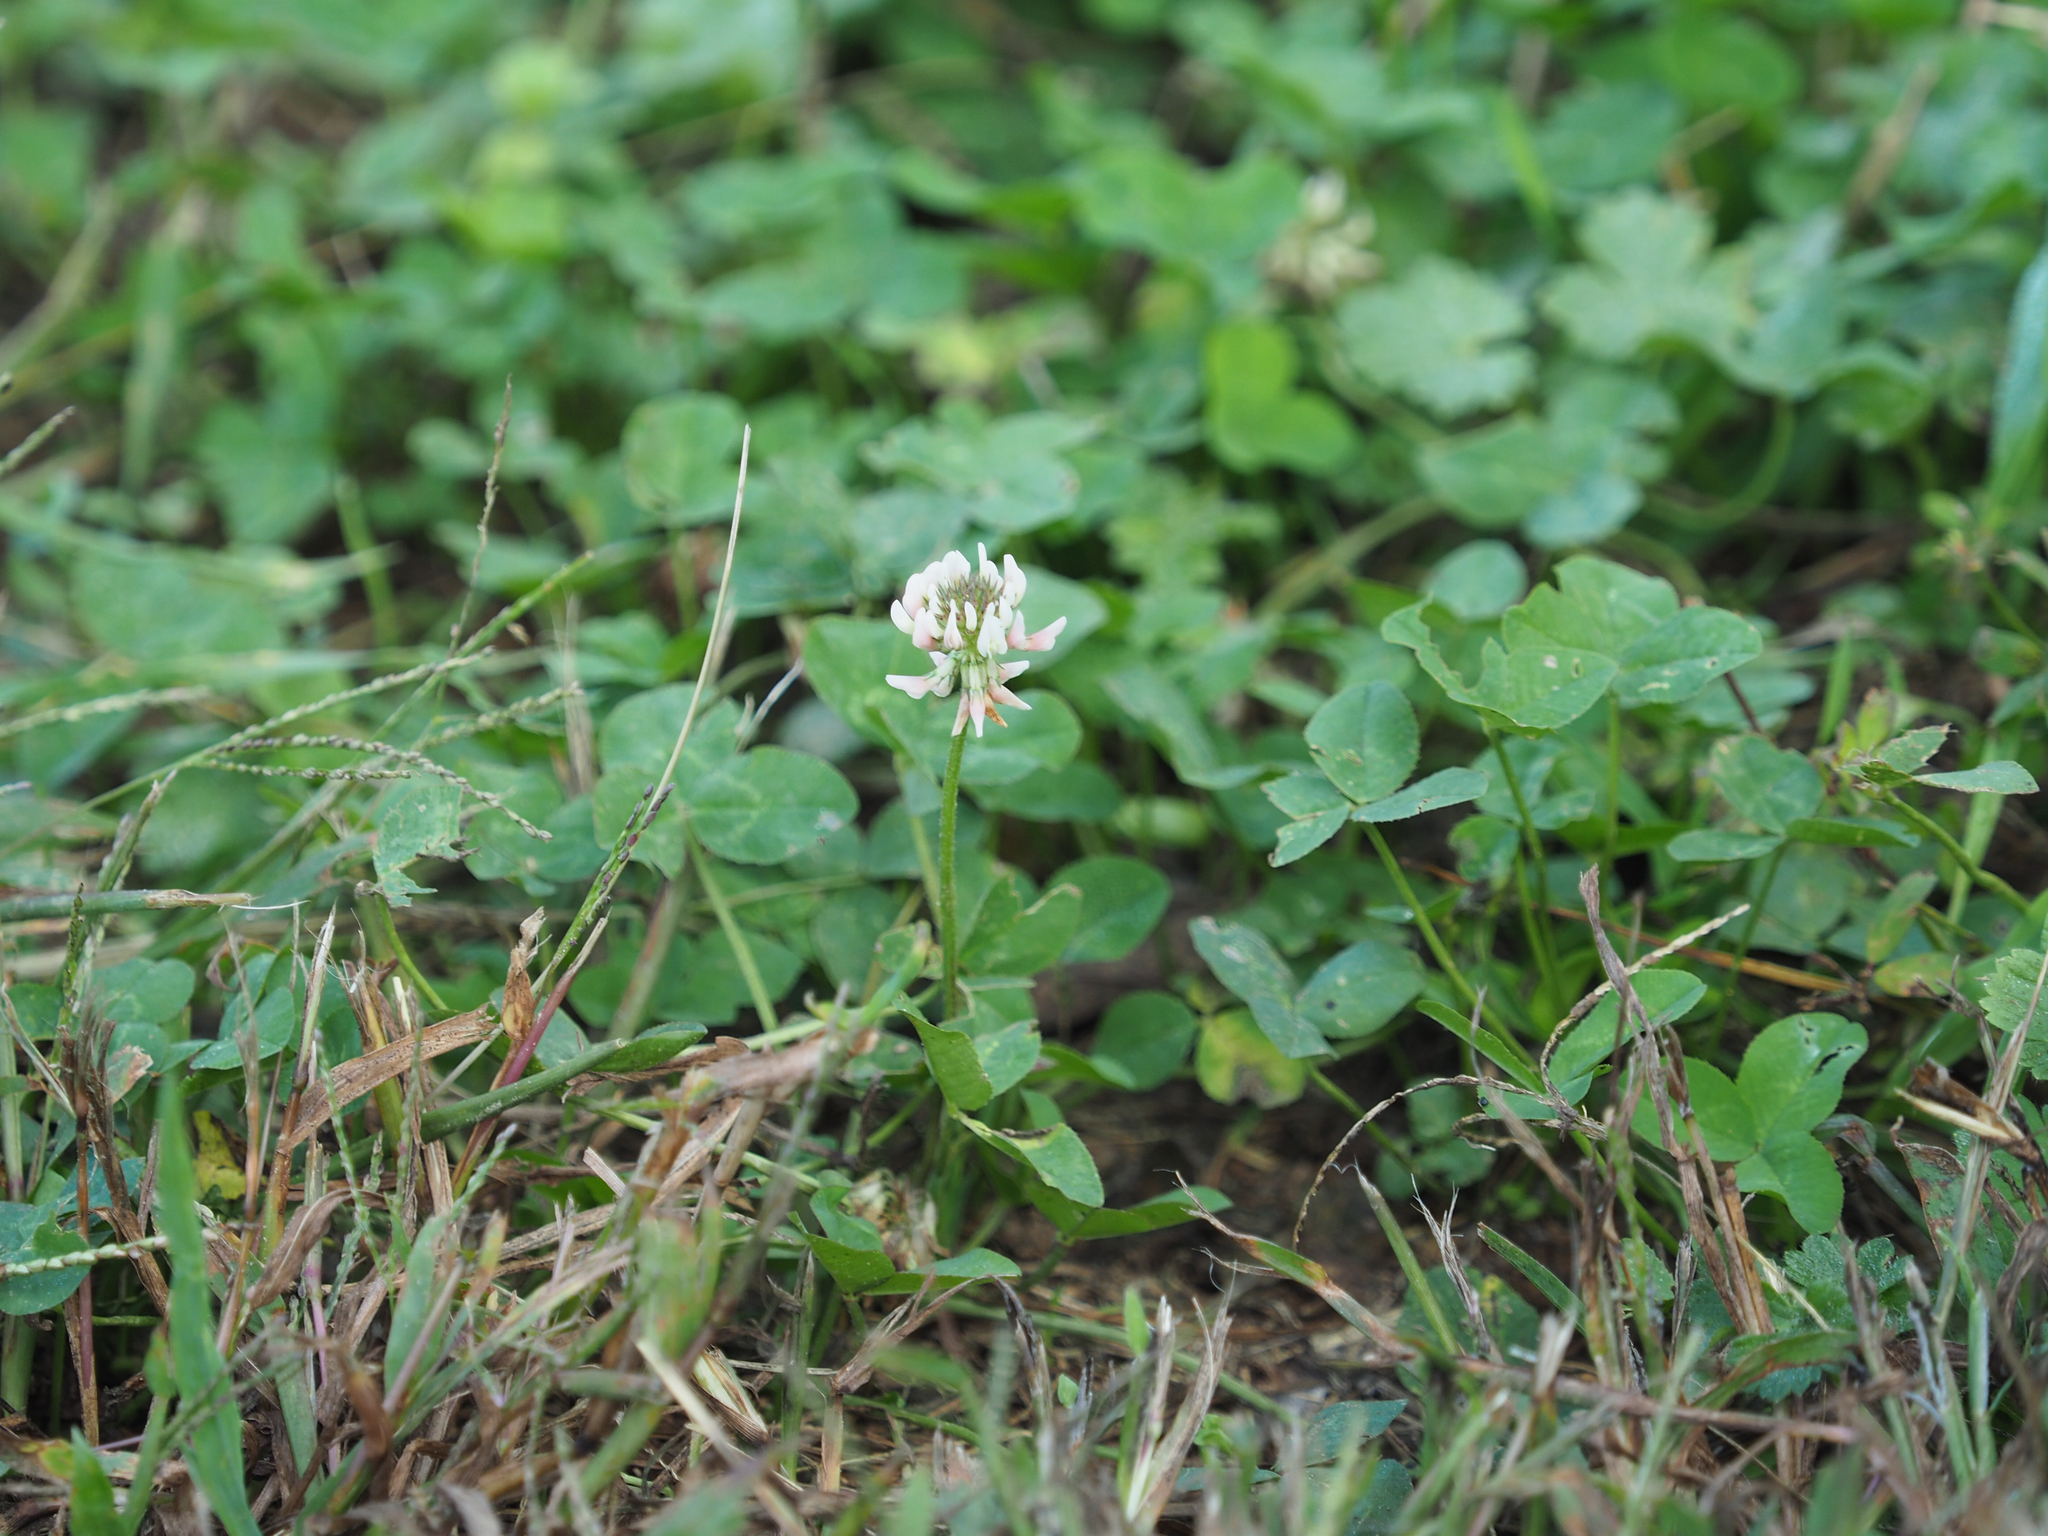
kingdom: Plantae
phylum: Tracheophyta
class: Magnoliopsida
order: Fabales
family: Fabaceae
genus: Trifolium
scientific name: Trifolium repens
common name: White clover
